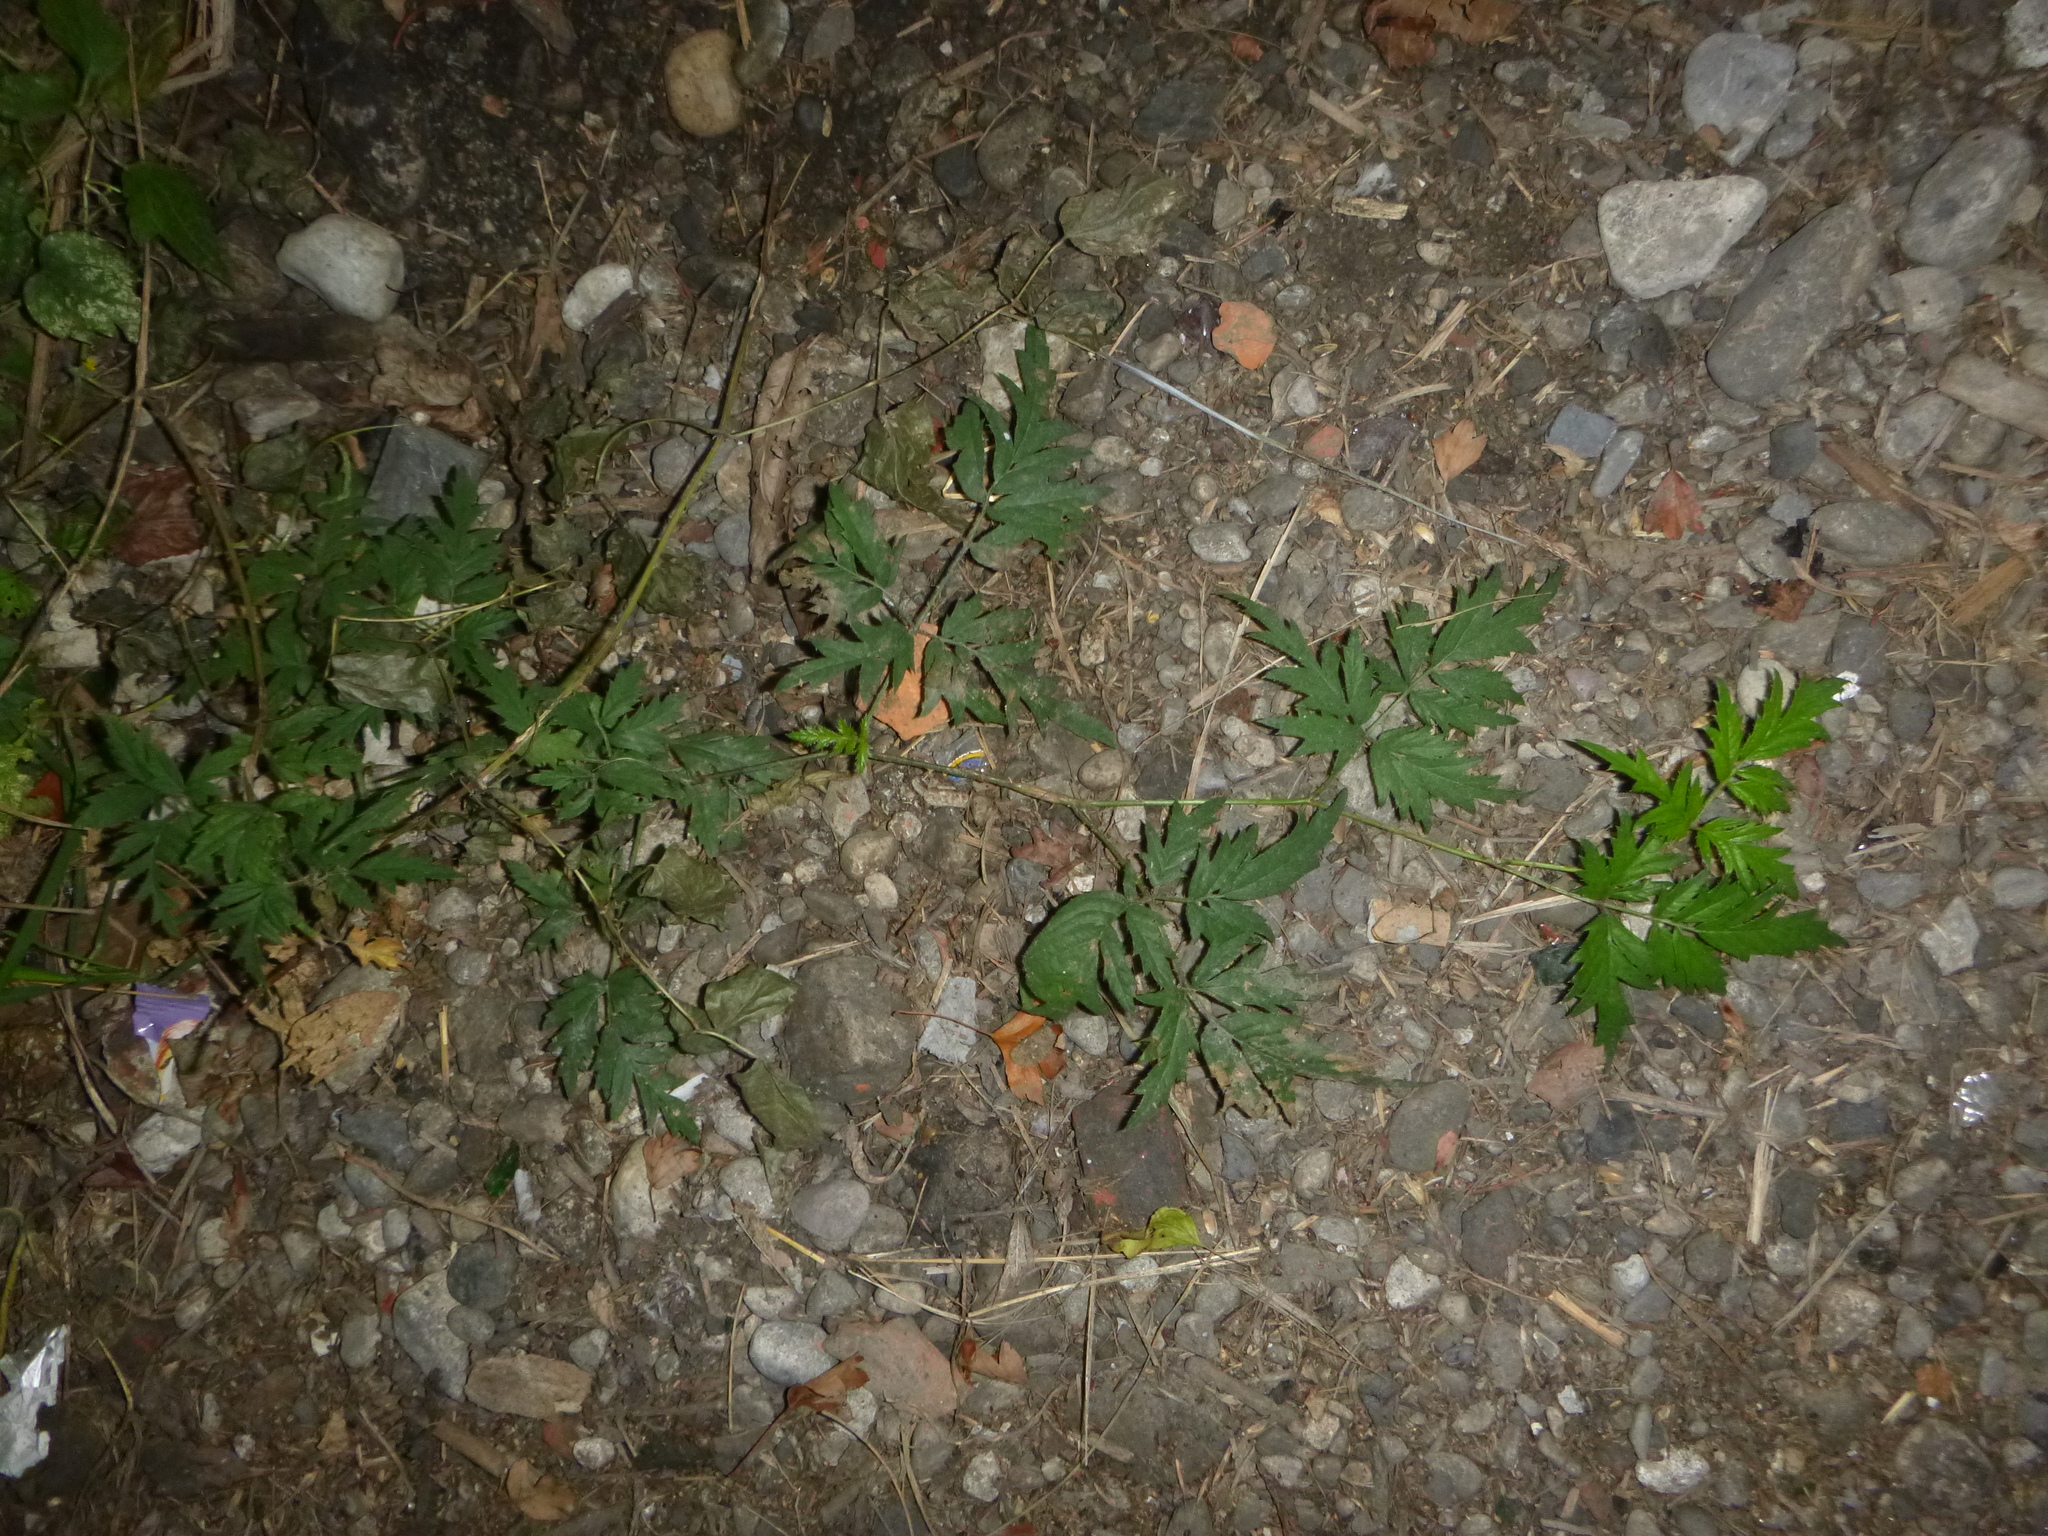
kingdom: Plantae
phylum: Tracheophyta
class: Magnoliopsida
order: Rosales
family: Rosaceae
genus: Rubus
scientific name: Rubus laciniatus
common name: Evergreen blackberry
